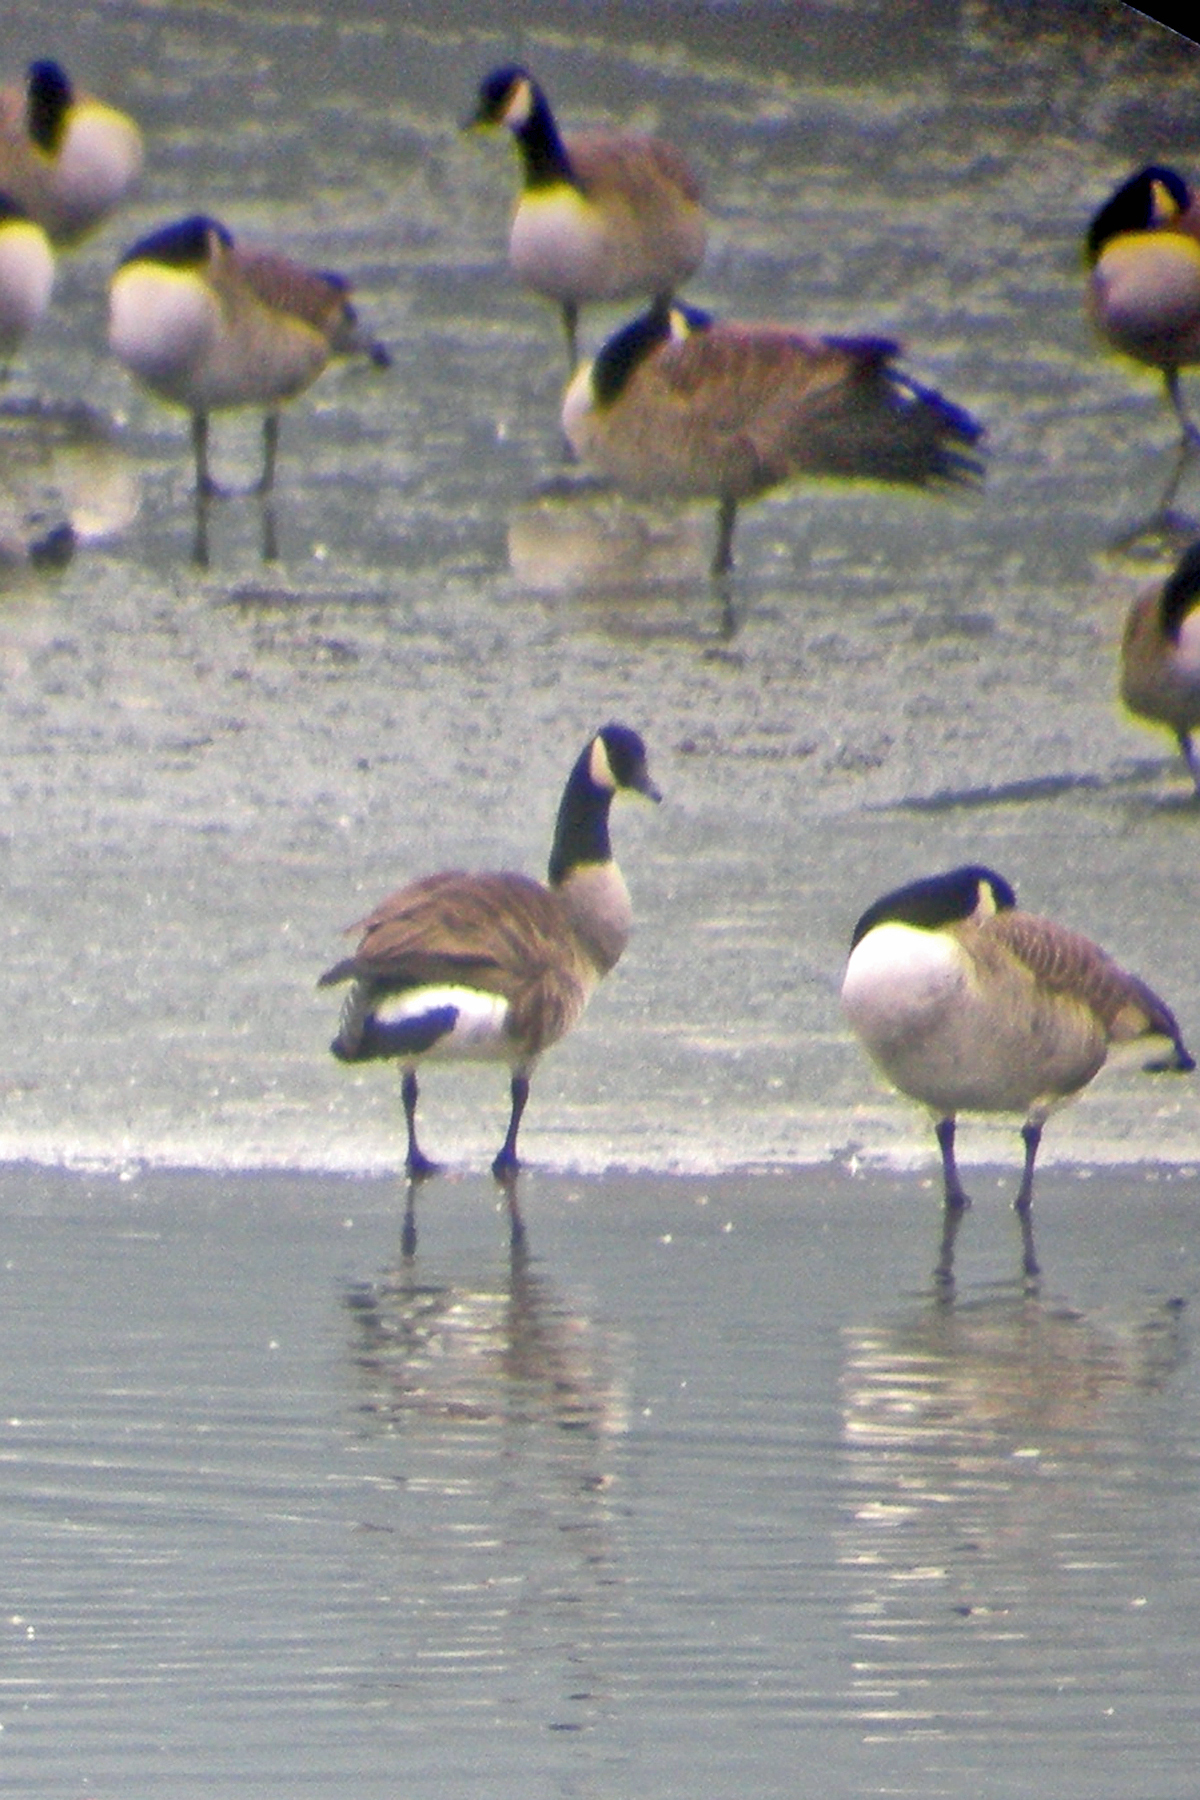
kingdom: Animalia
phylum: Chordata
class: Aves
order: Anseriformes
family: Anatidae
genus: Branta
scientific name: Branta canadensis
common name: Canada goose
